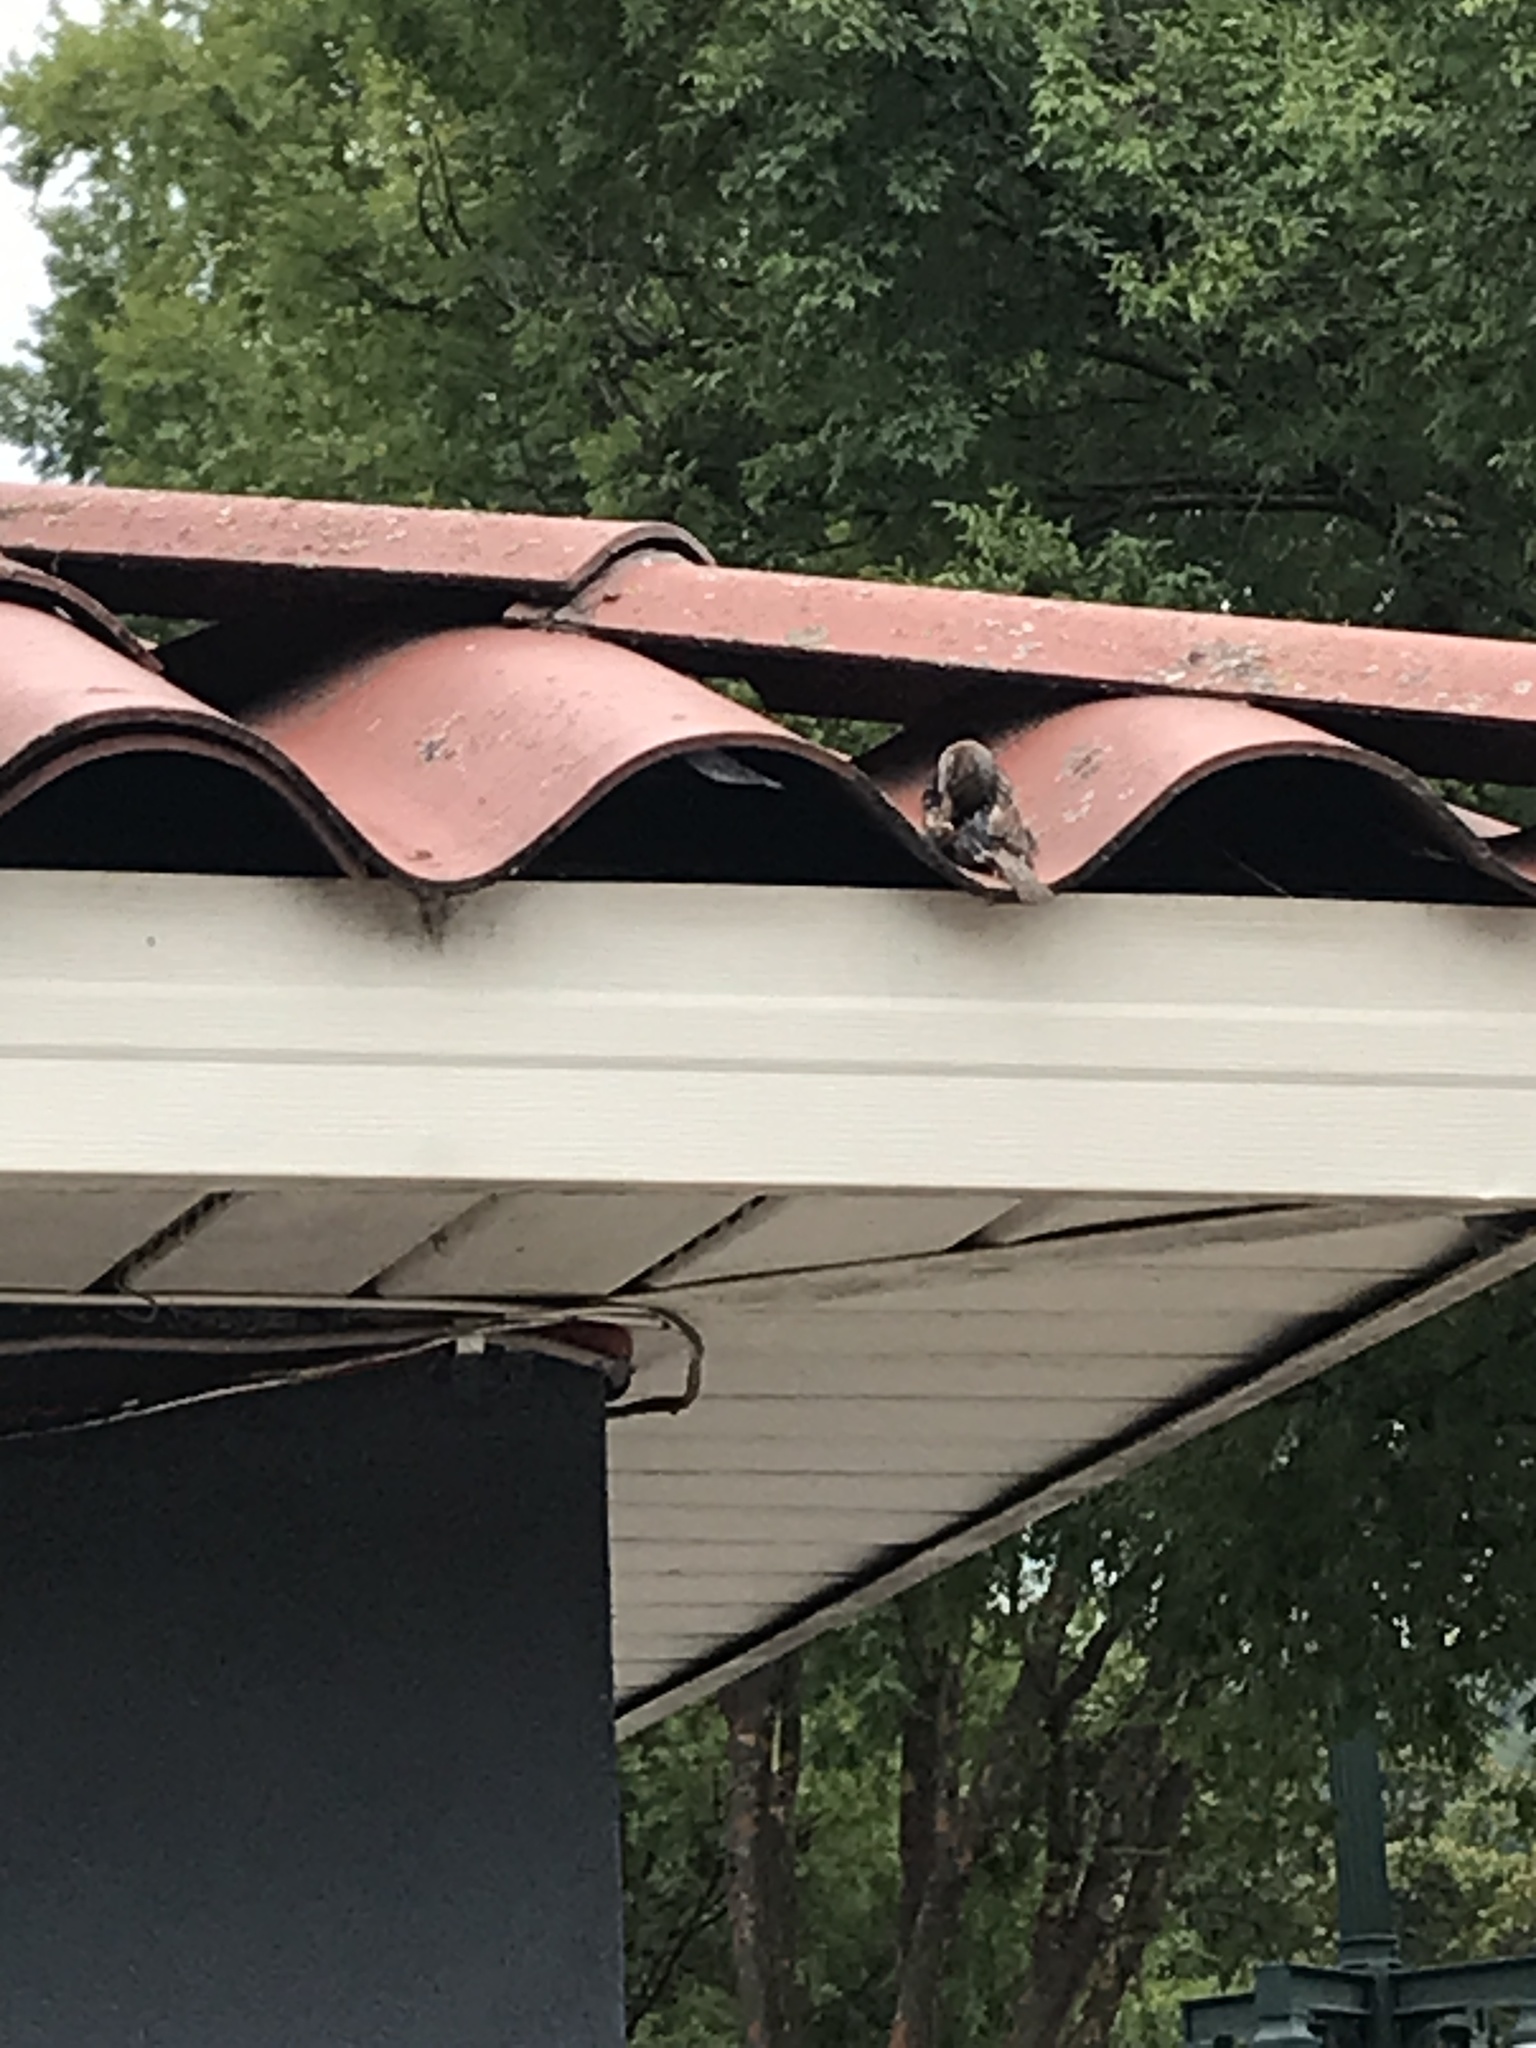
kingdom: Animalia
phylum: Chordata
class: Aves
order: Passeriformes
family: Passeridae
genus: Passer
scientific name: Passer domesticus
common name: House sparrow
